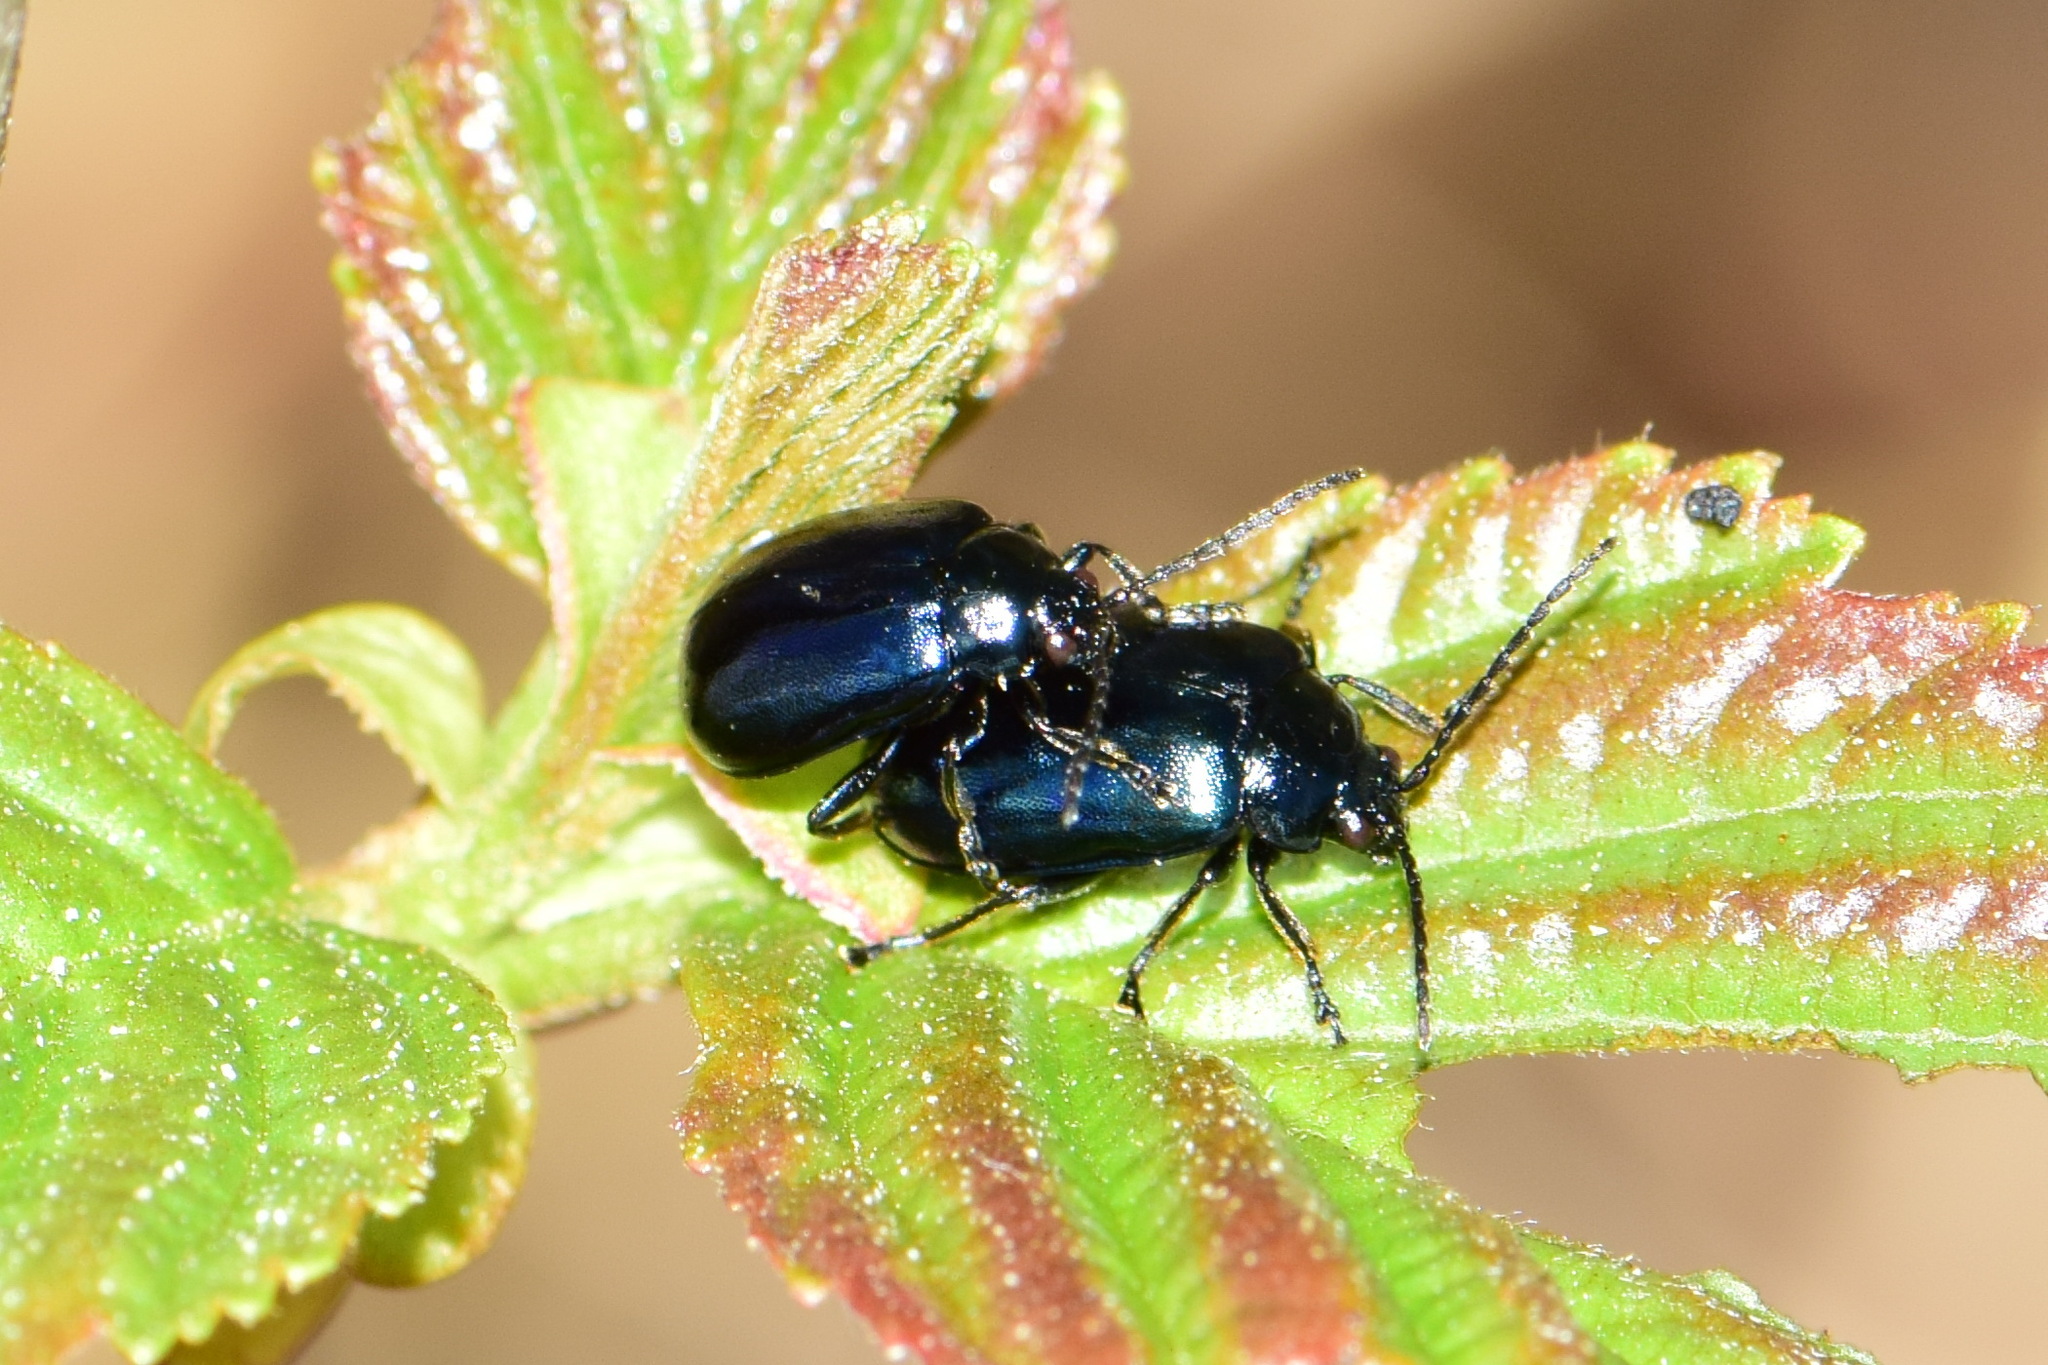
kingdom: Animalia
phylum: Arthropoda
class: Insecta
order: Coleoptera
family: Chrysomelidae
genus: Agelastica
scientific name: Agelastica alni
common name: Alder leaf beetle
